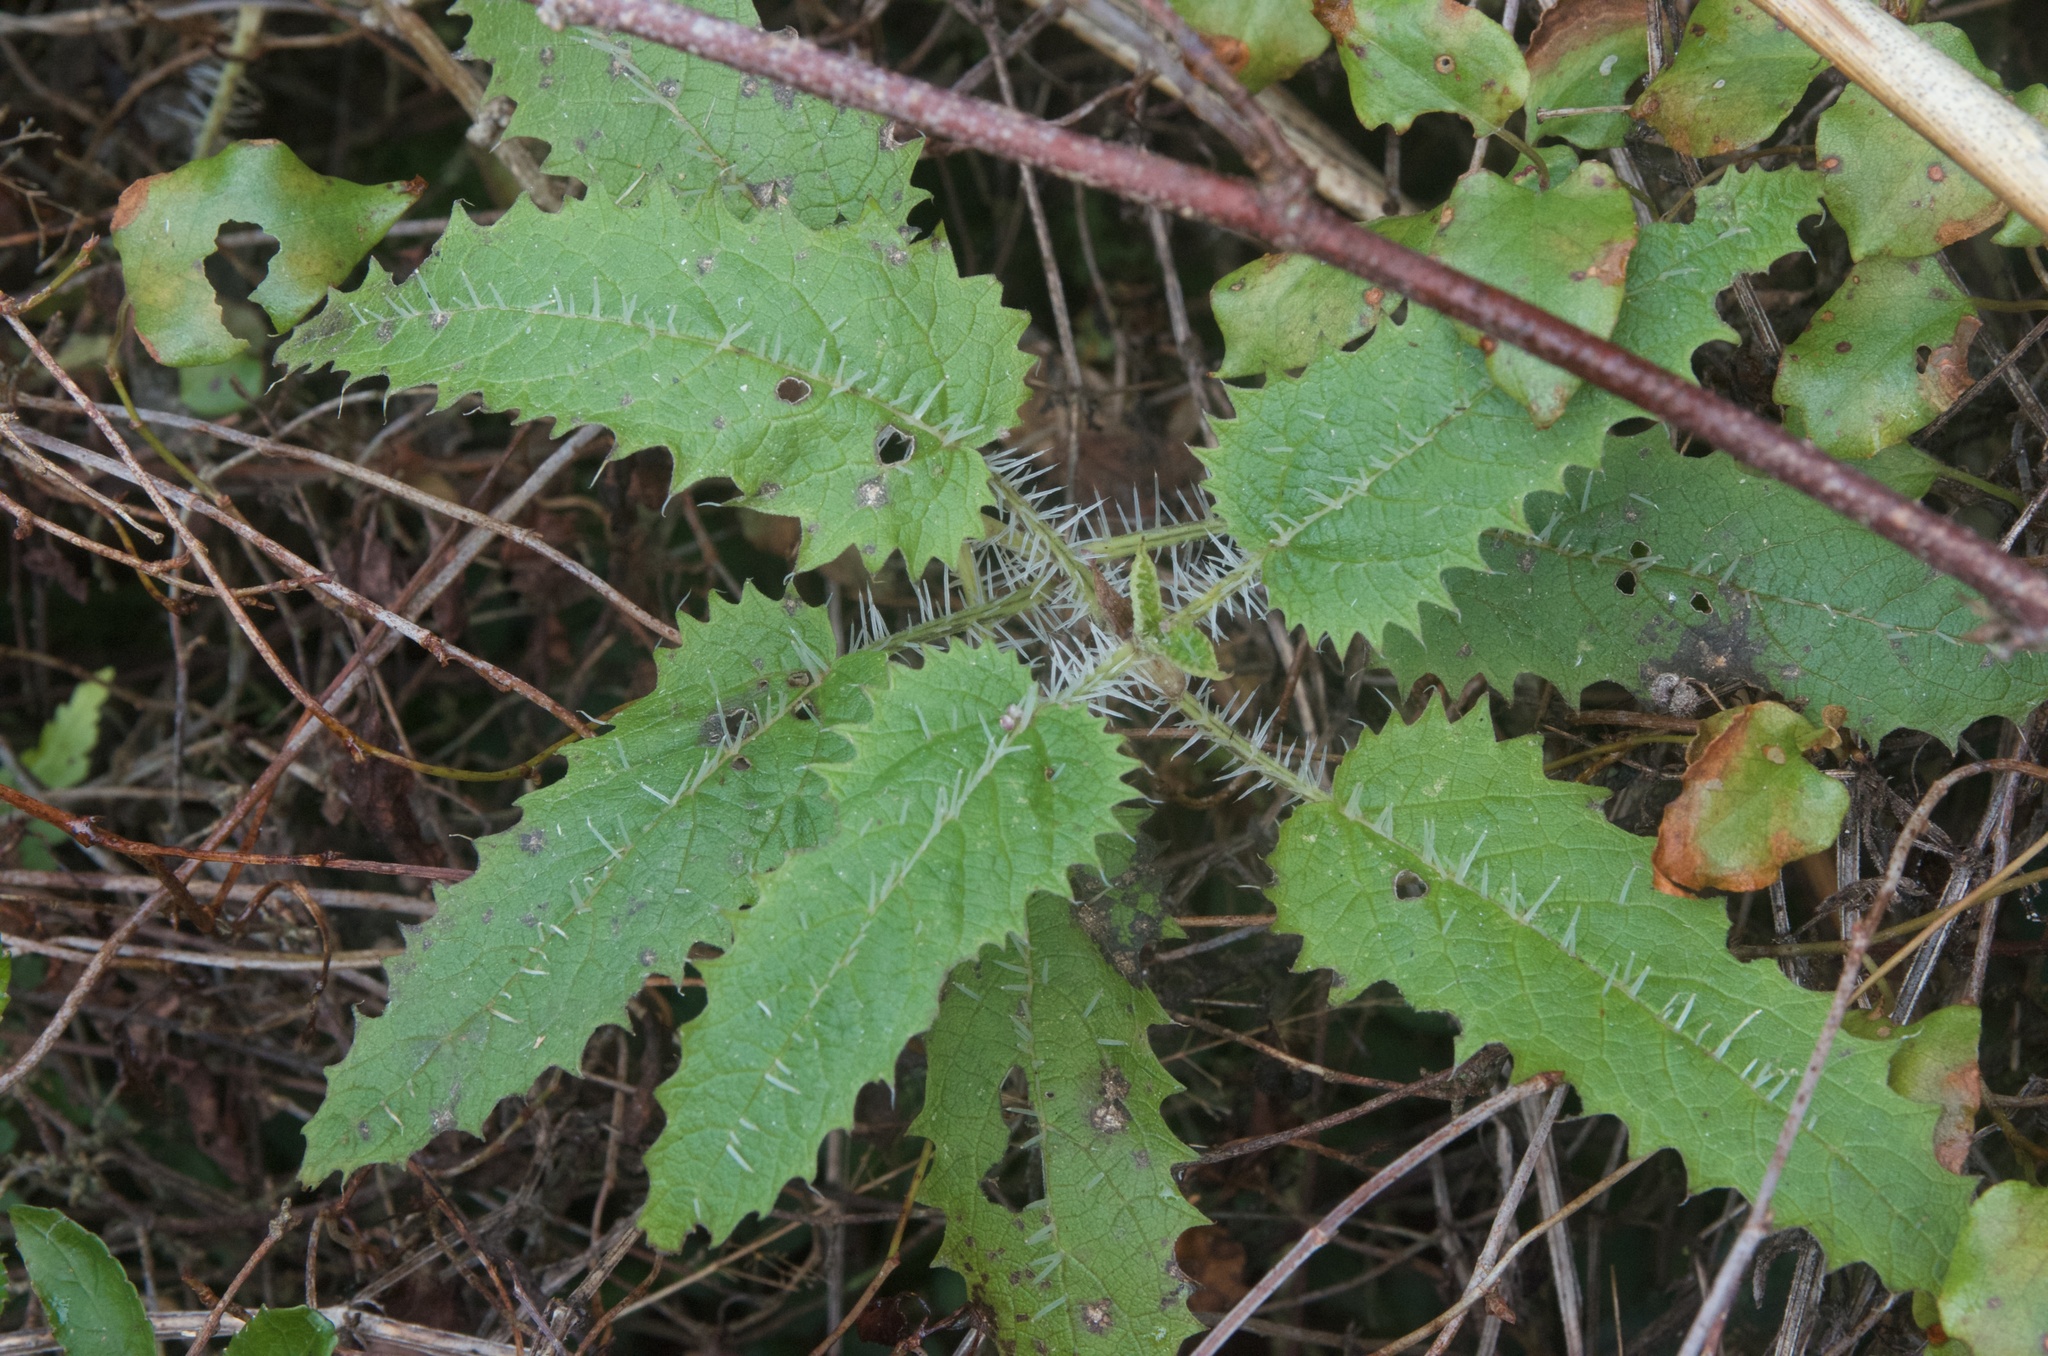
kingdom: Plantae
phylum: Tracheophyta
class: Magnoliopsida
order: Rosales
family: Urticaceae
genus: Urtica
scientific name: Urtica ferox
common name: Tree nettle
